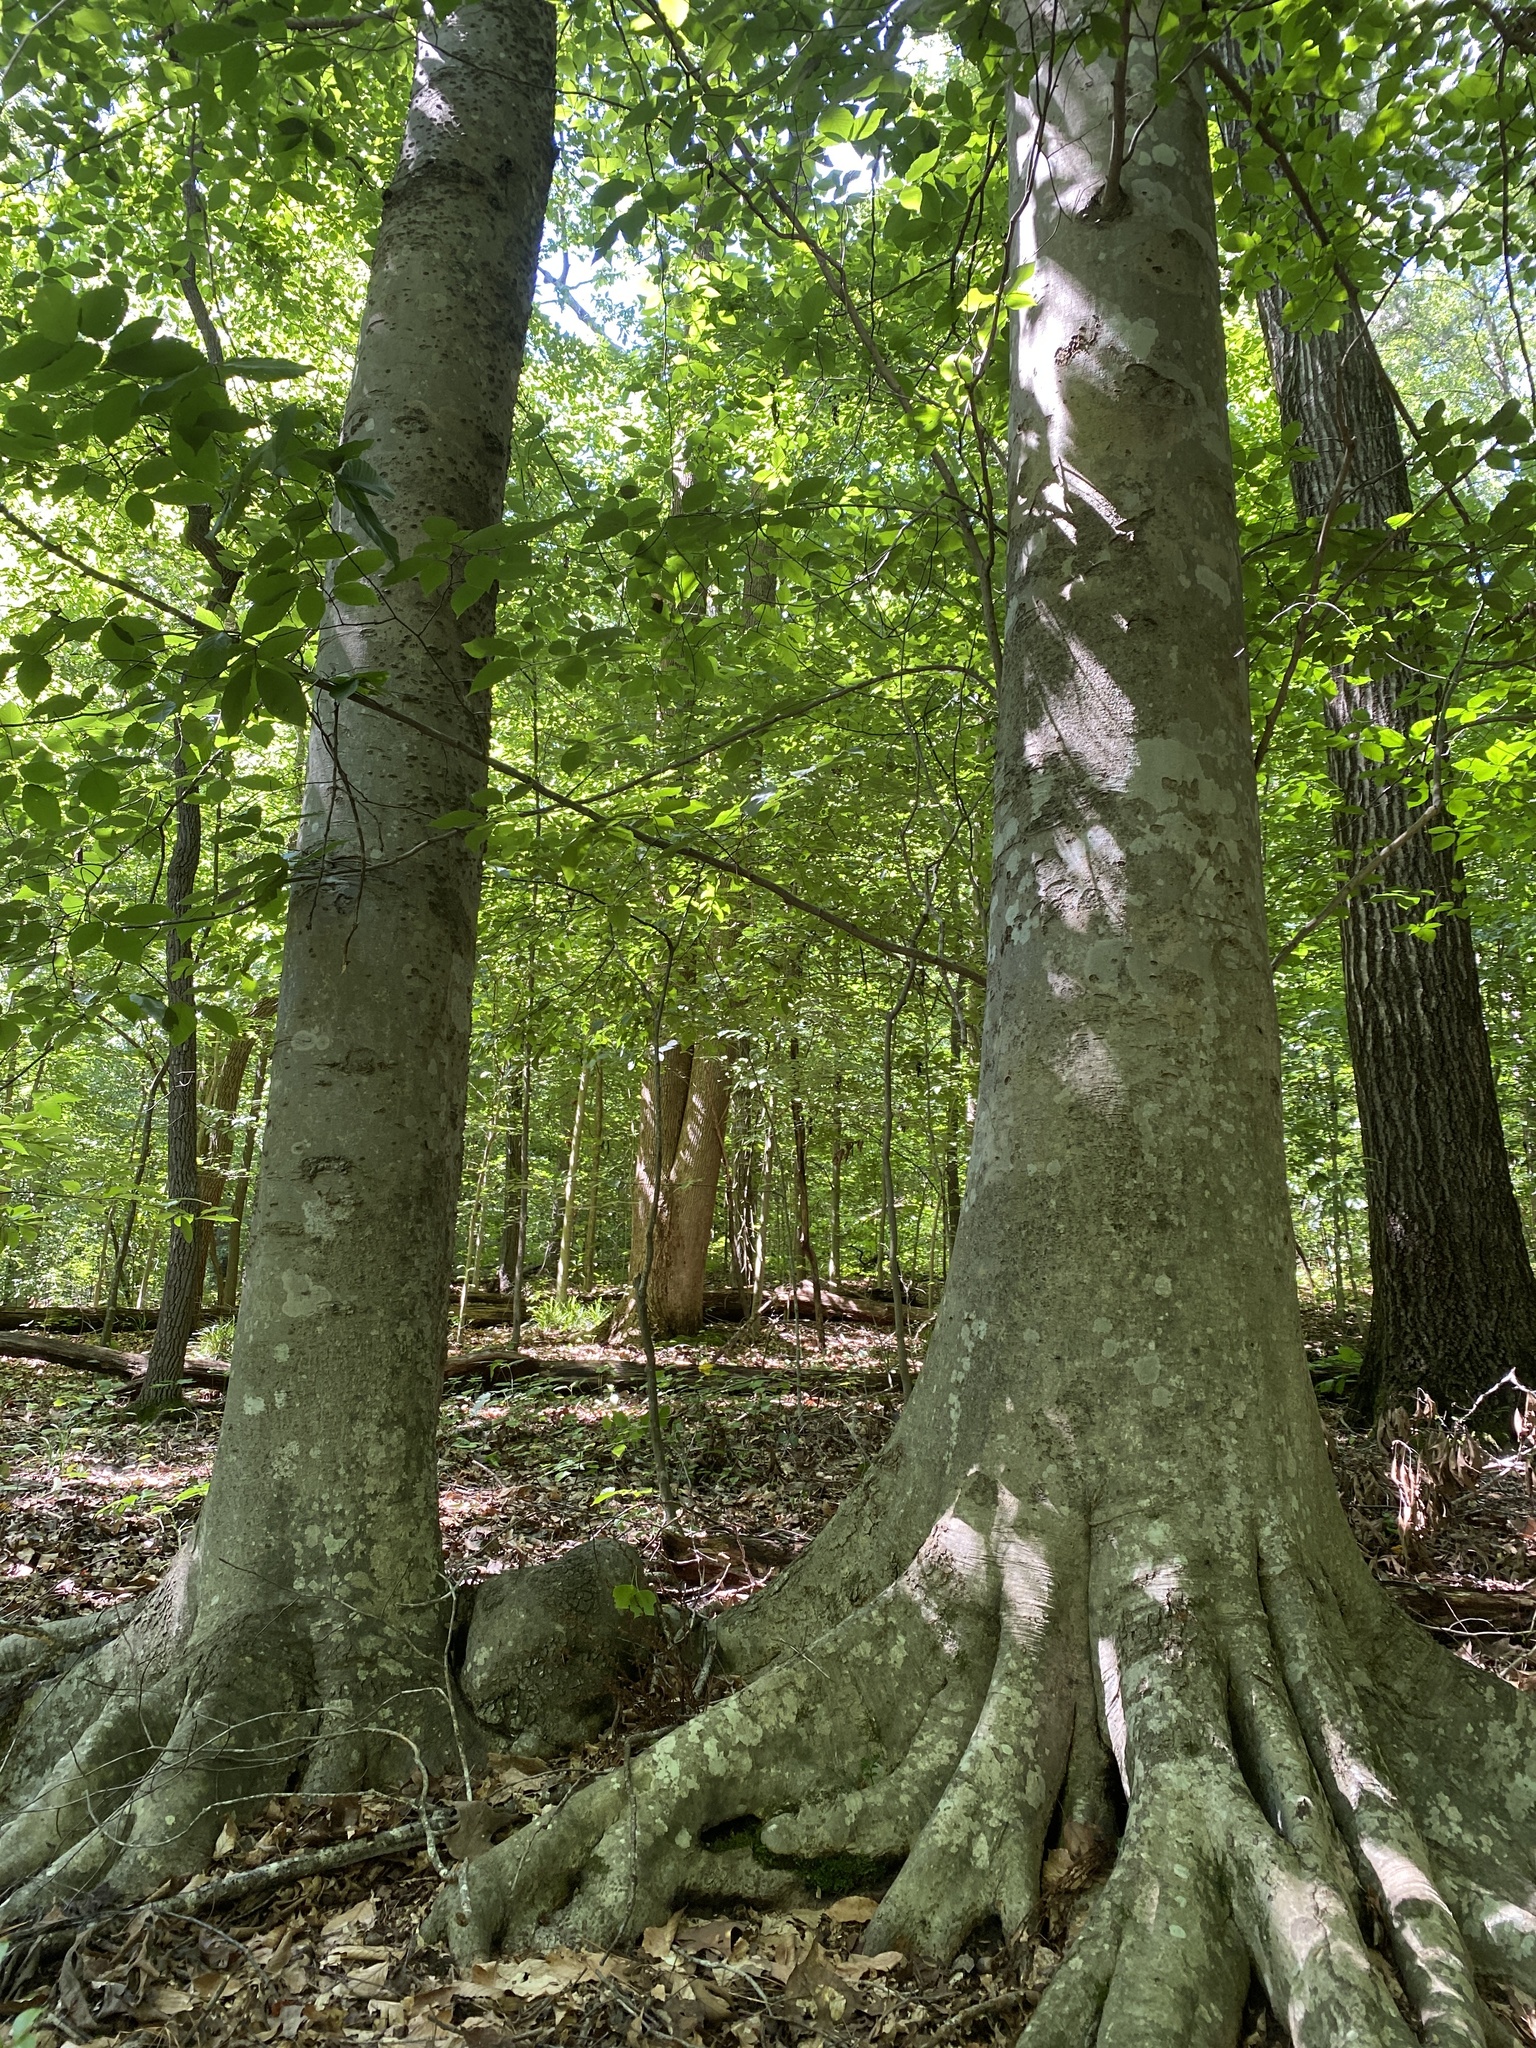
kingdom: Plantae
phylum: Tracheophyta
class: Magnoliopsida
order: Fagales
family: Fagaceae
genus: Fagus
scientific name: Fagus grandifolia
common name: American beech
